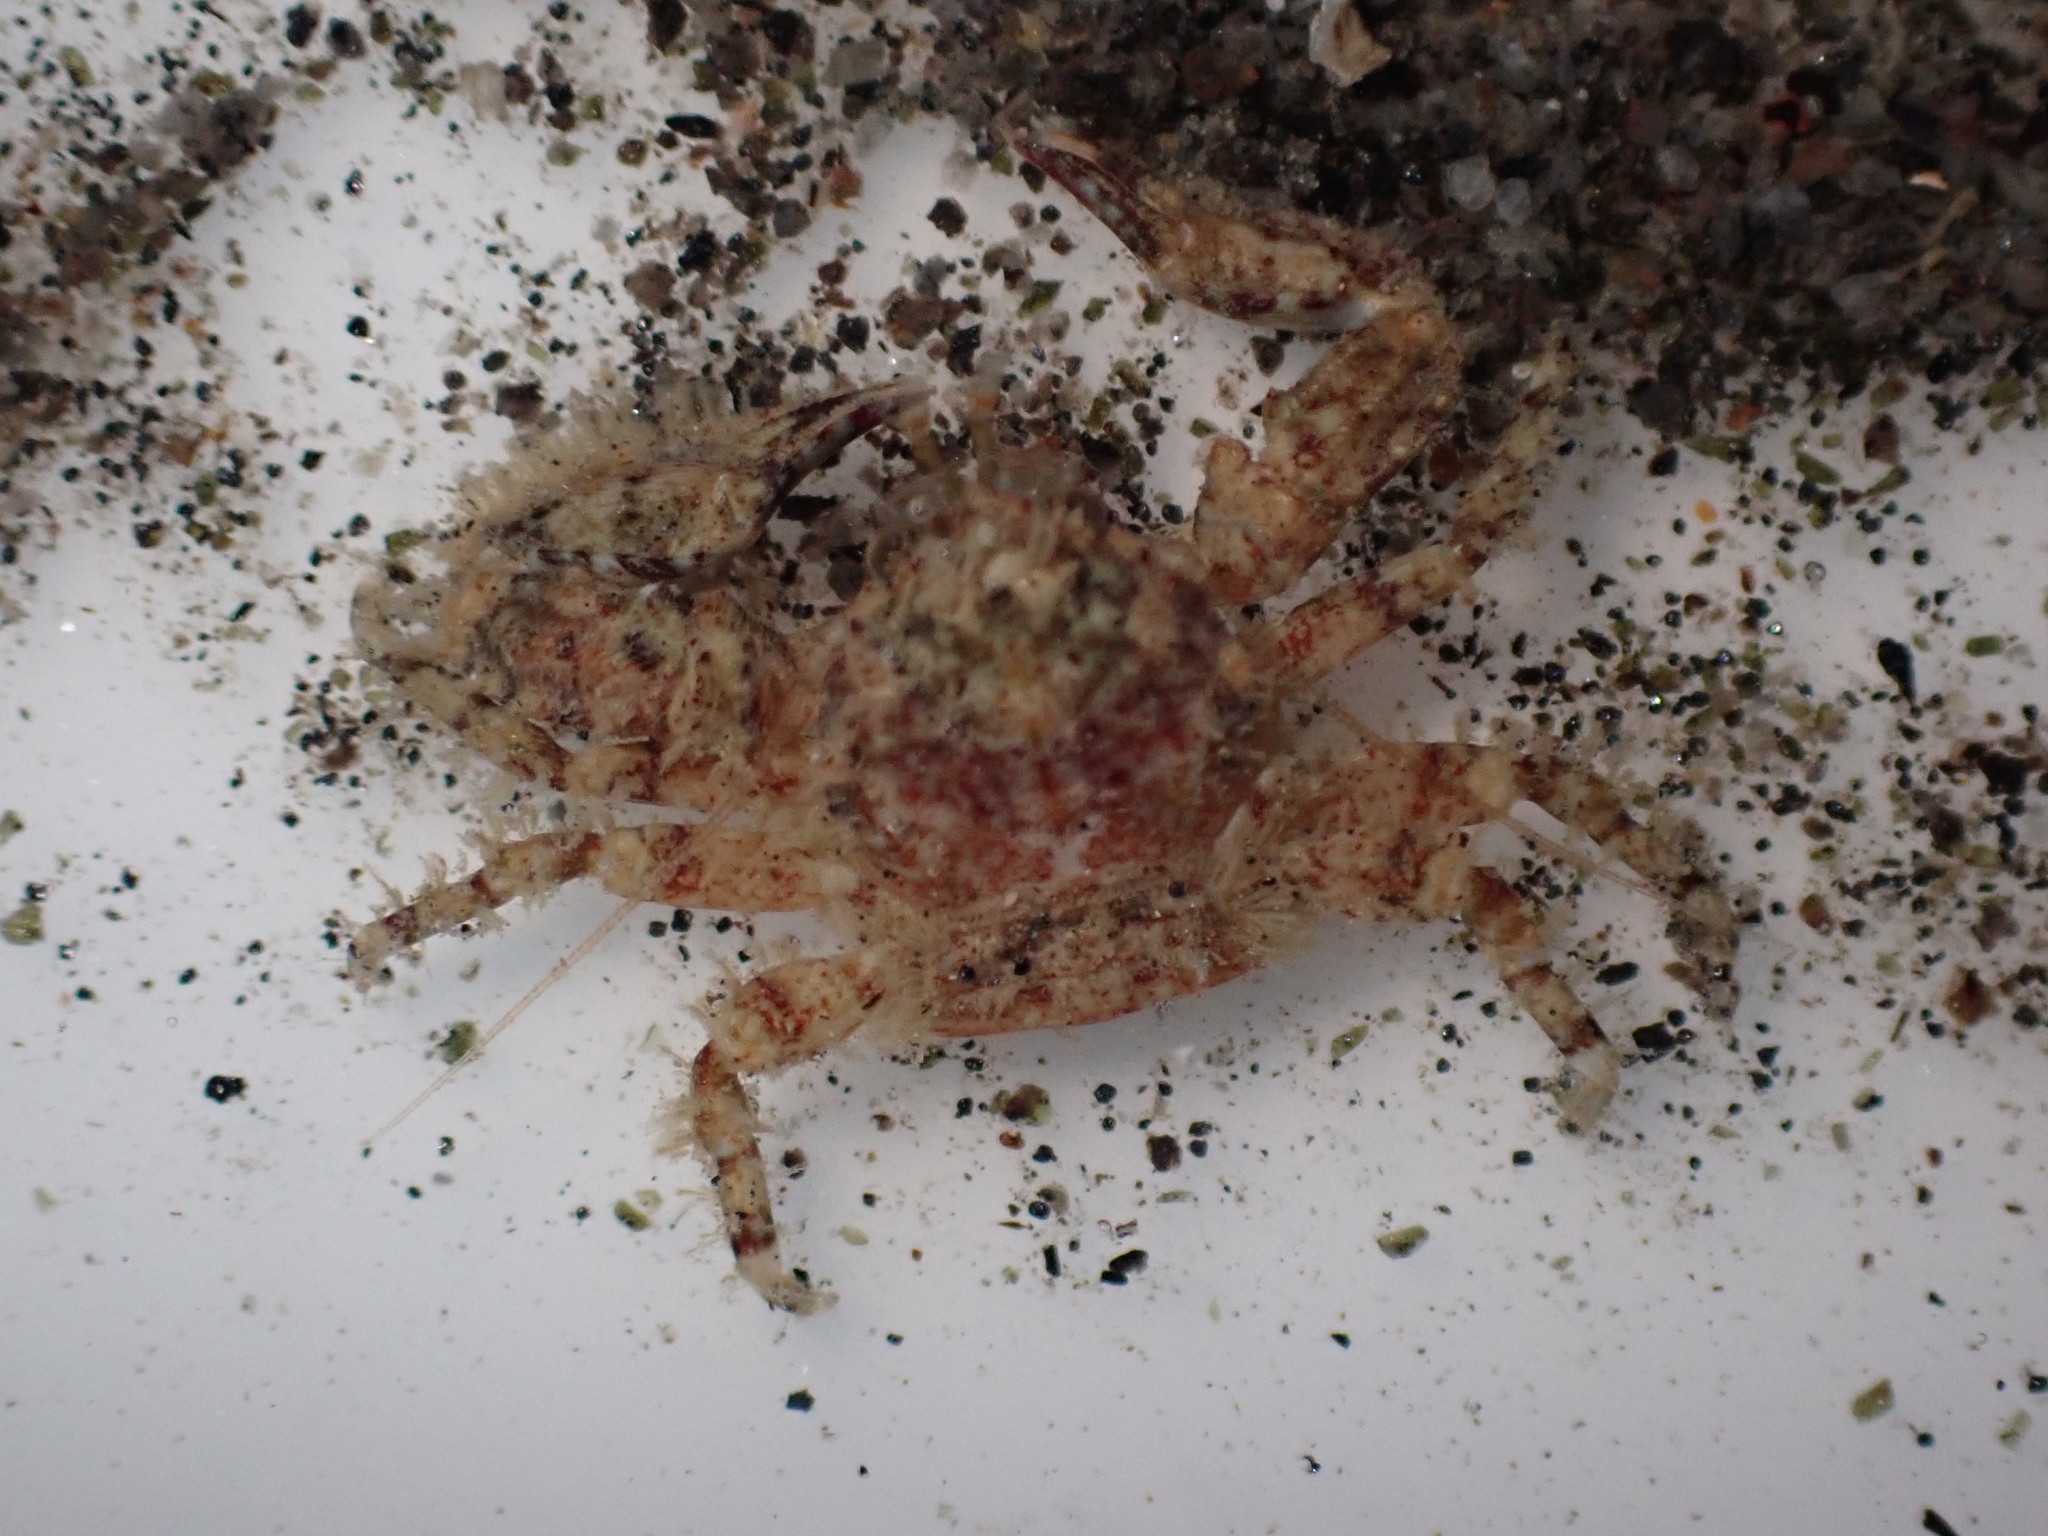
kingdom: Animalia
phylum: Arthropoda
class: Malacostraca
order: Decapoda
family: Porcellanidae
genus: Petrolisthes
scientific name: Petrolisthes novaezelandiae
